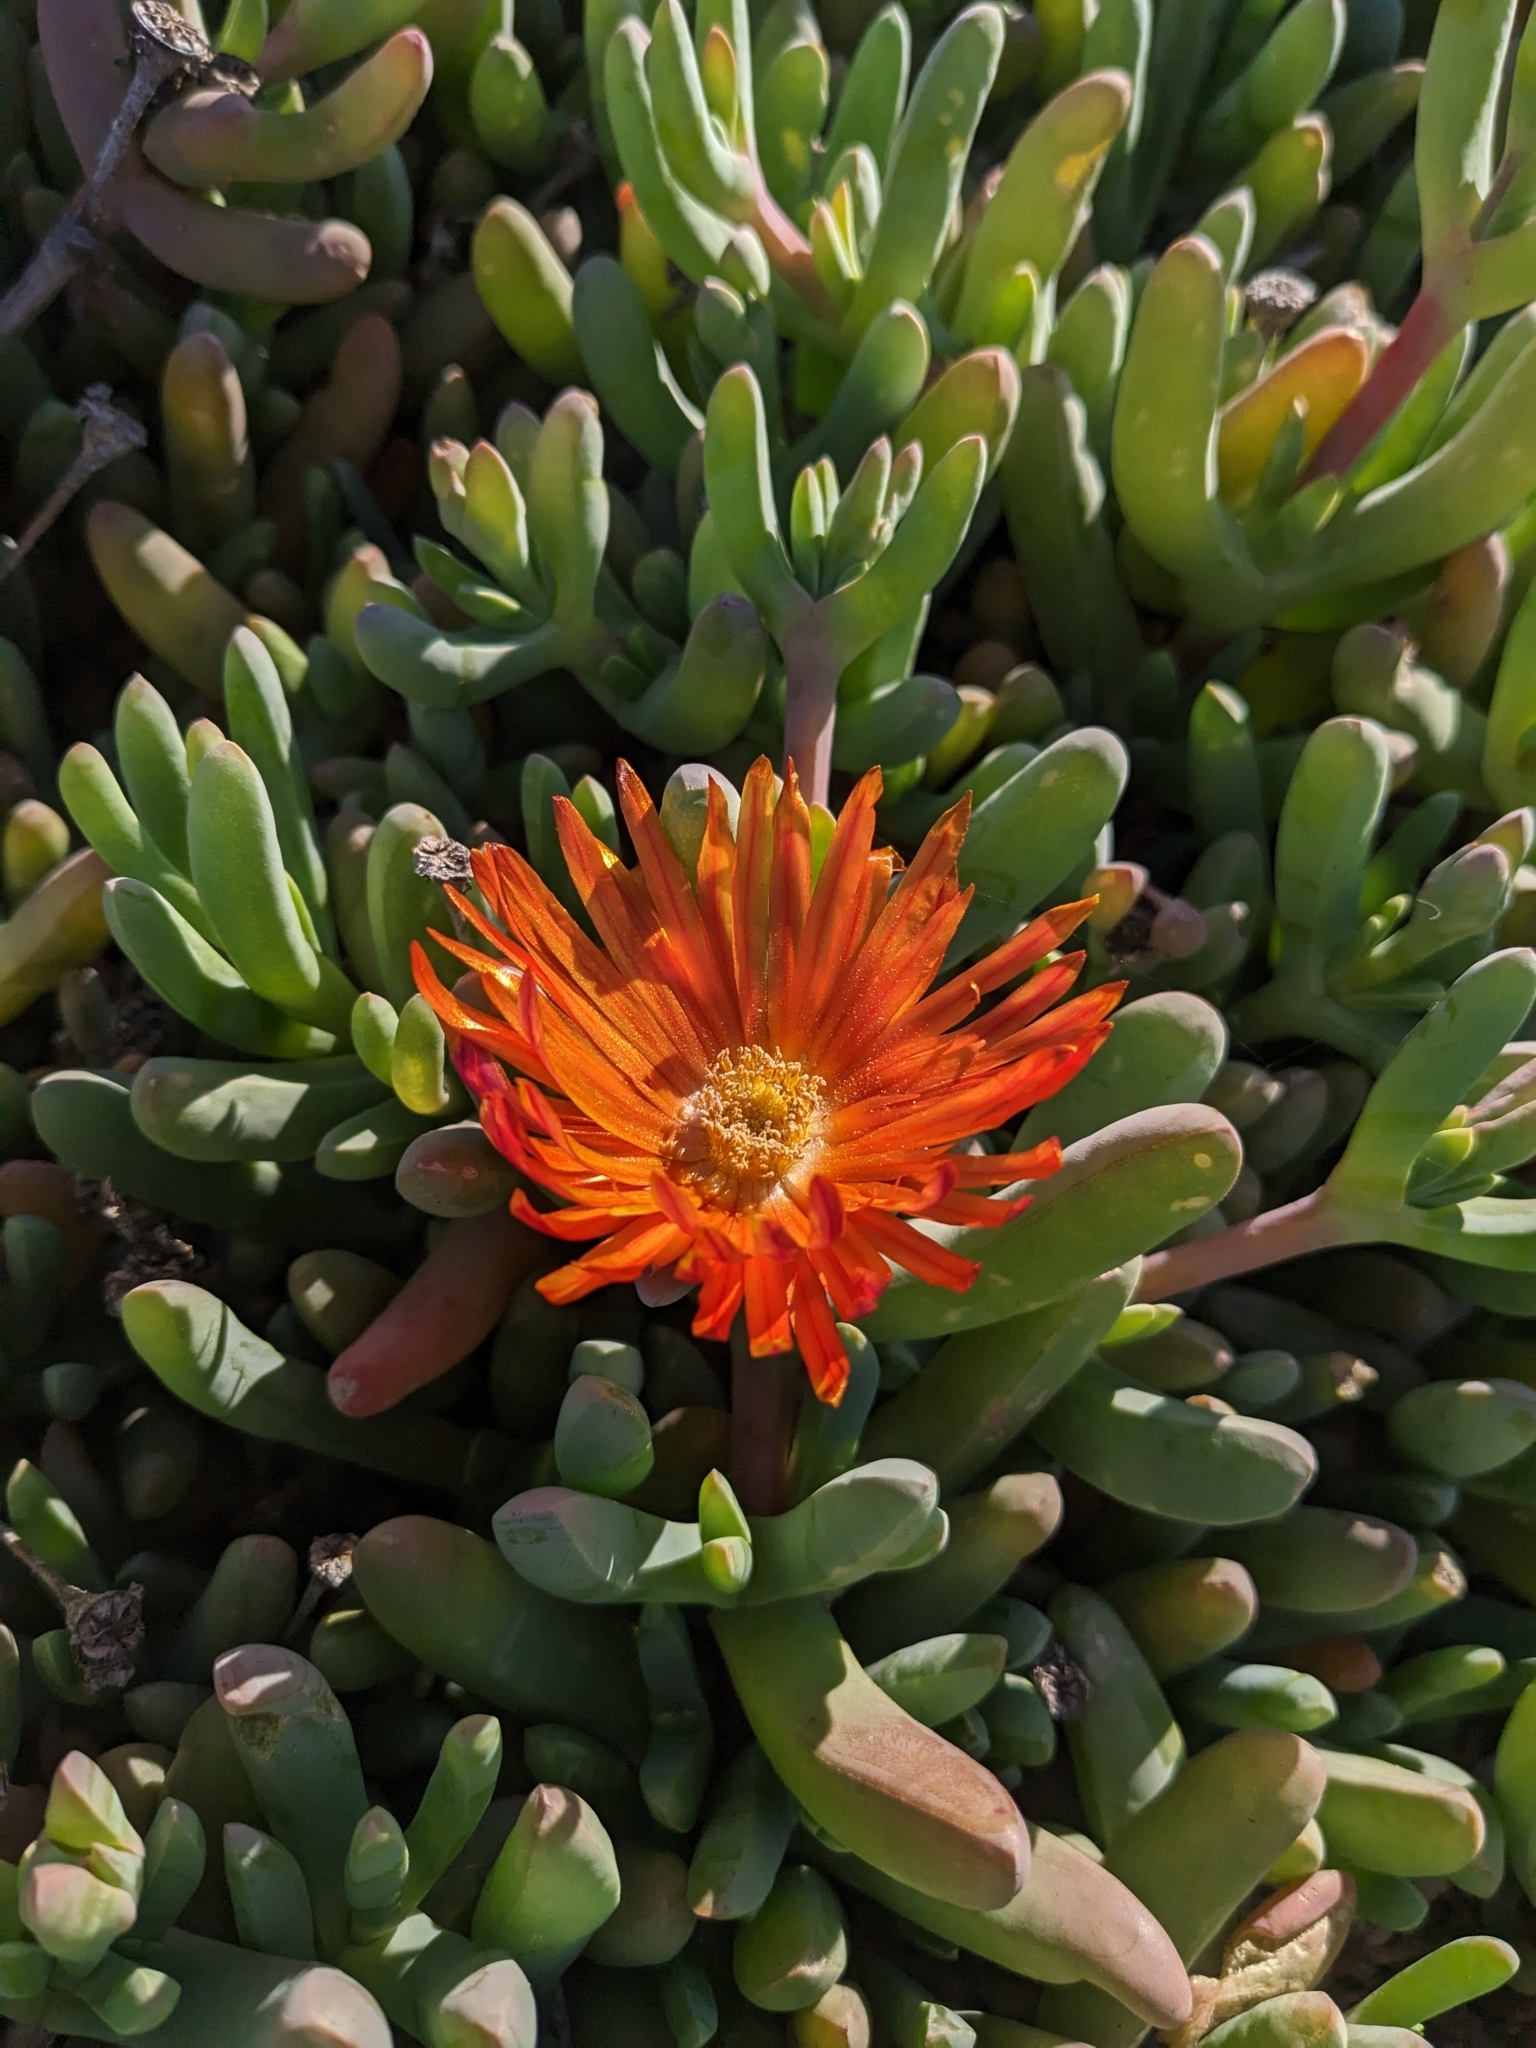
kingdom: Plantae
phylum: Tracheophyta
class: Magnoliopsida
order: Caryophyllales
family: Aizoaceae
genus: Malephora
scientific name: Malephora crocea
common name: Coppery mesemb
